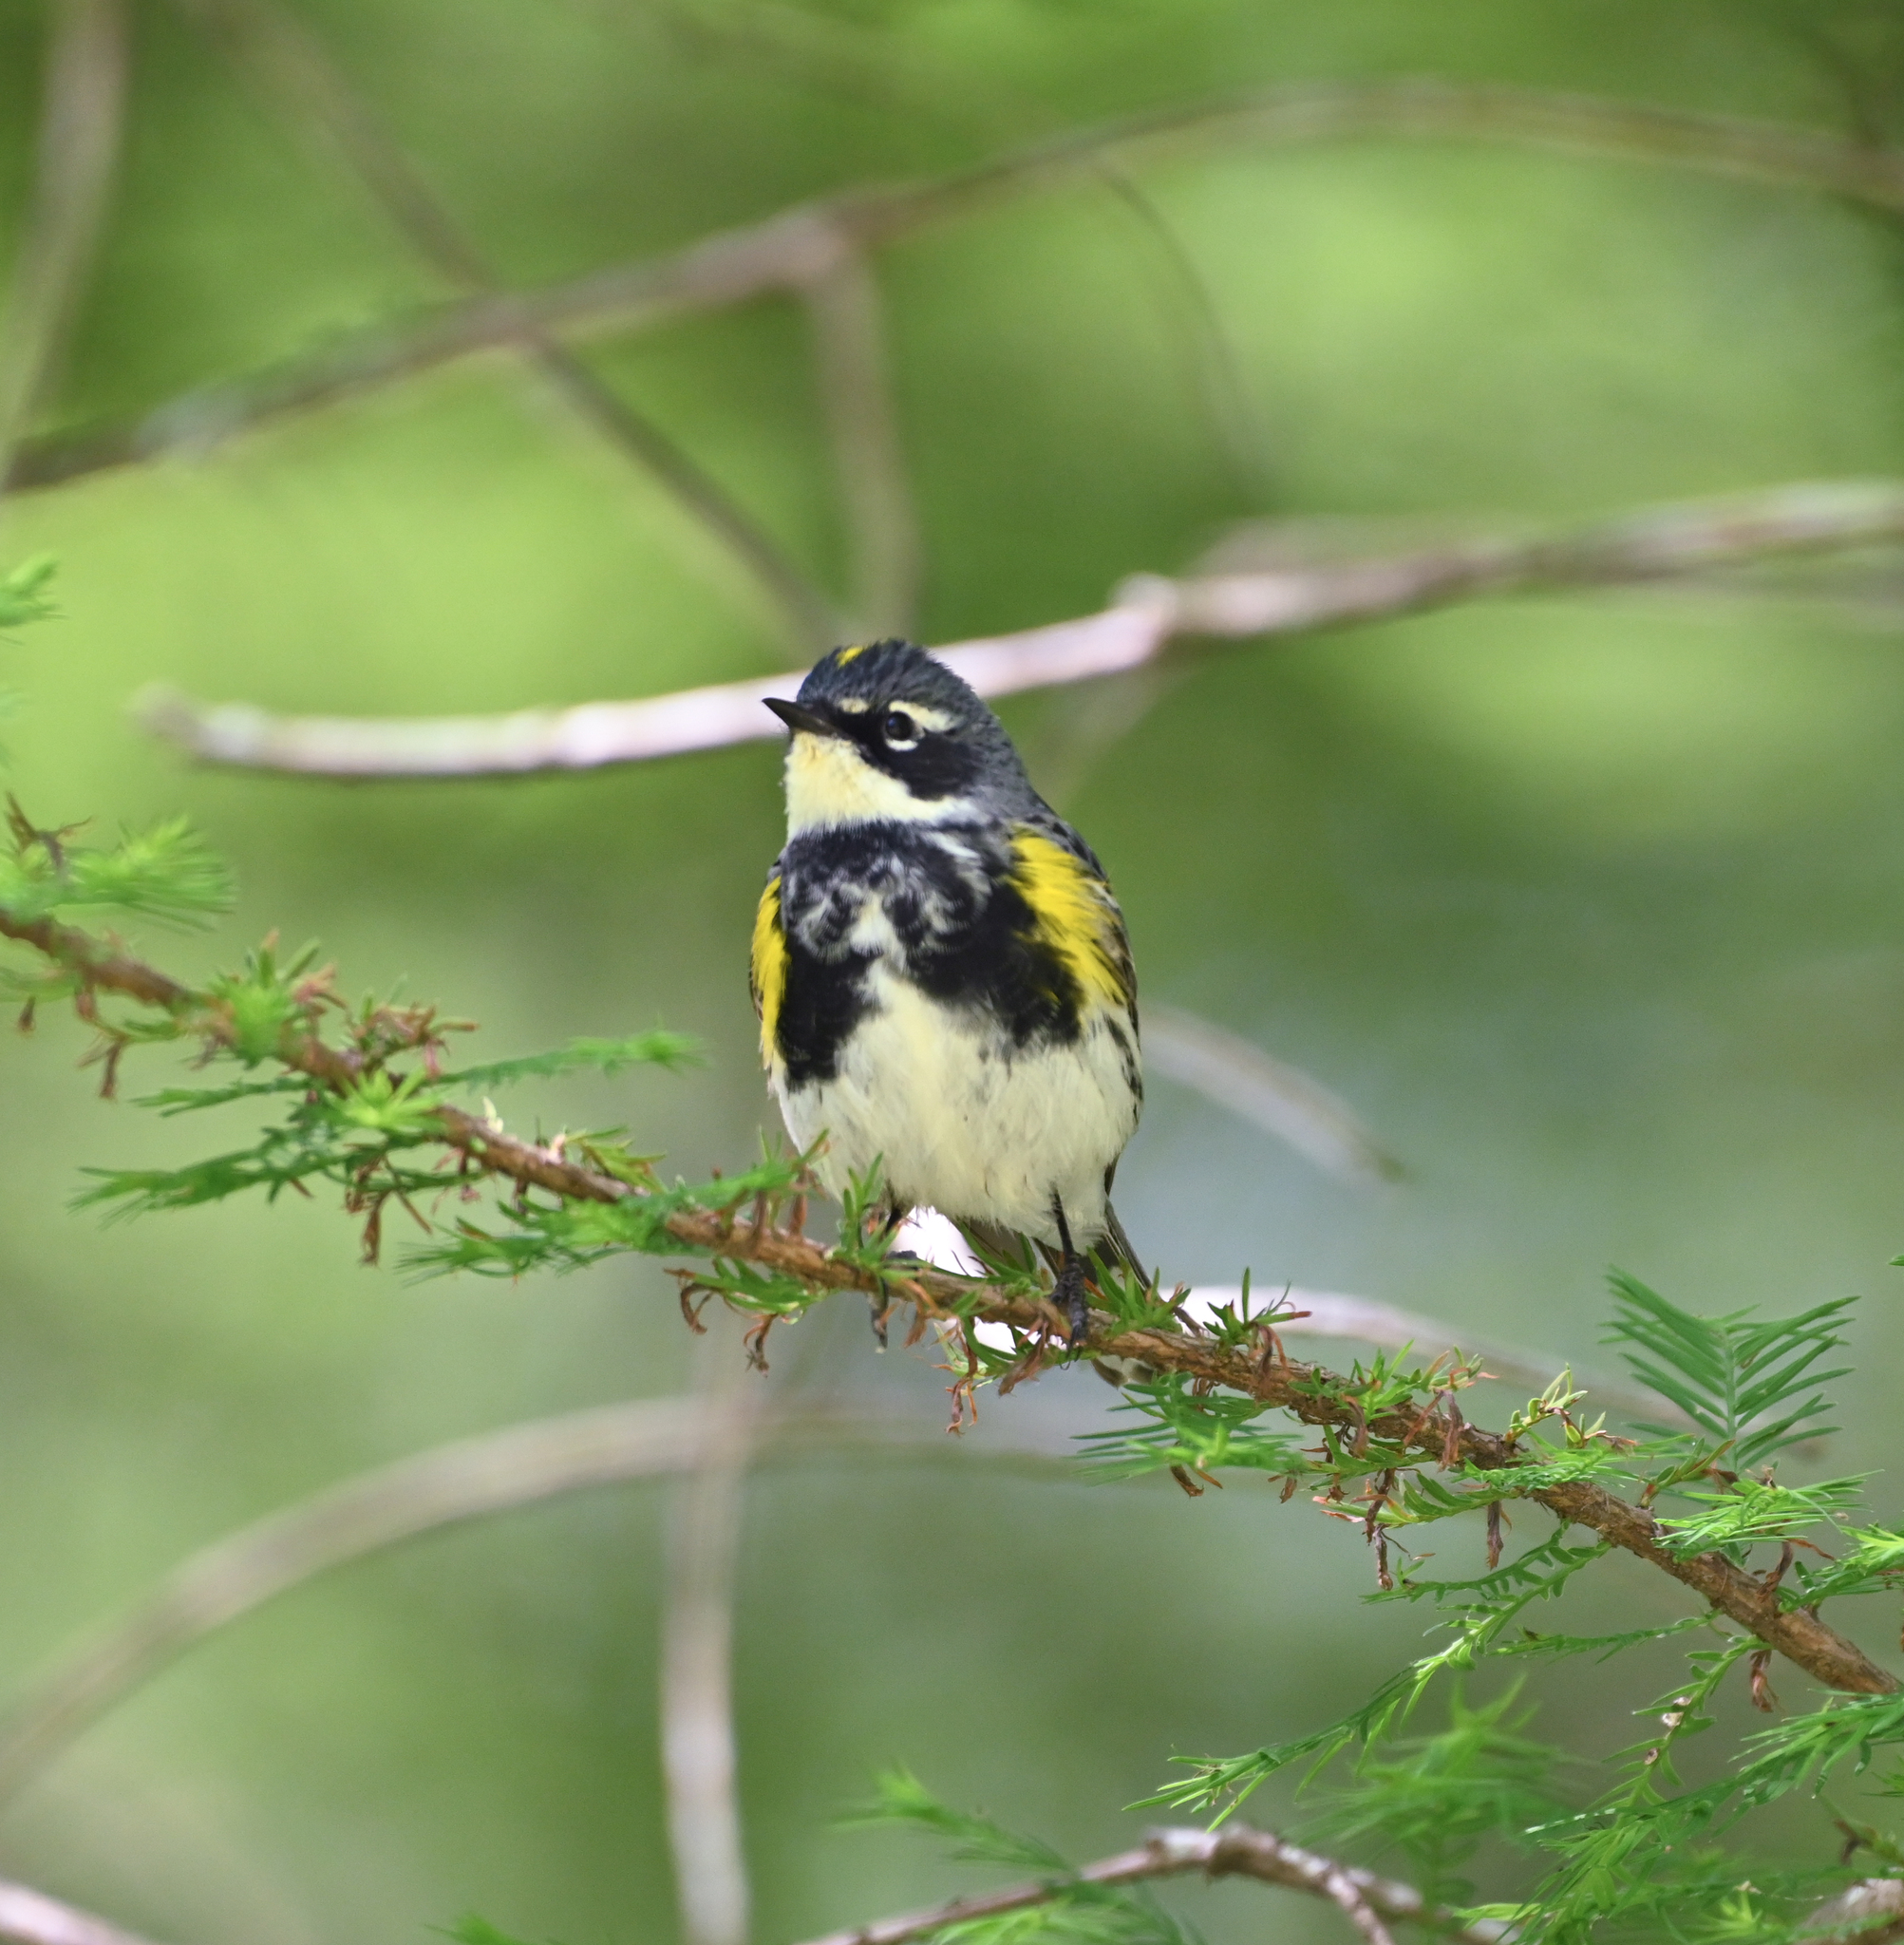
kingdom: Animalia
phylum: Chordata
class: Aves
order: Passeriformes
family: Parulidae
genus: Setophaga
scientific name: Setophaga coronata
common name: Myrtle warbler
